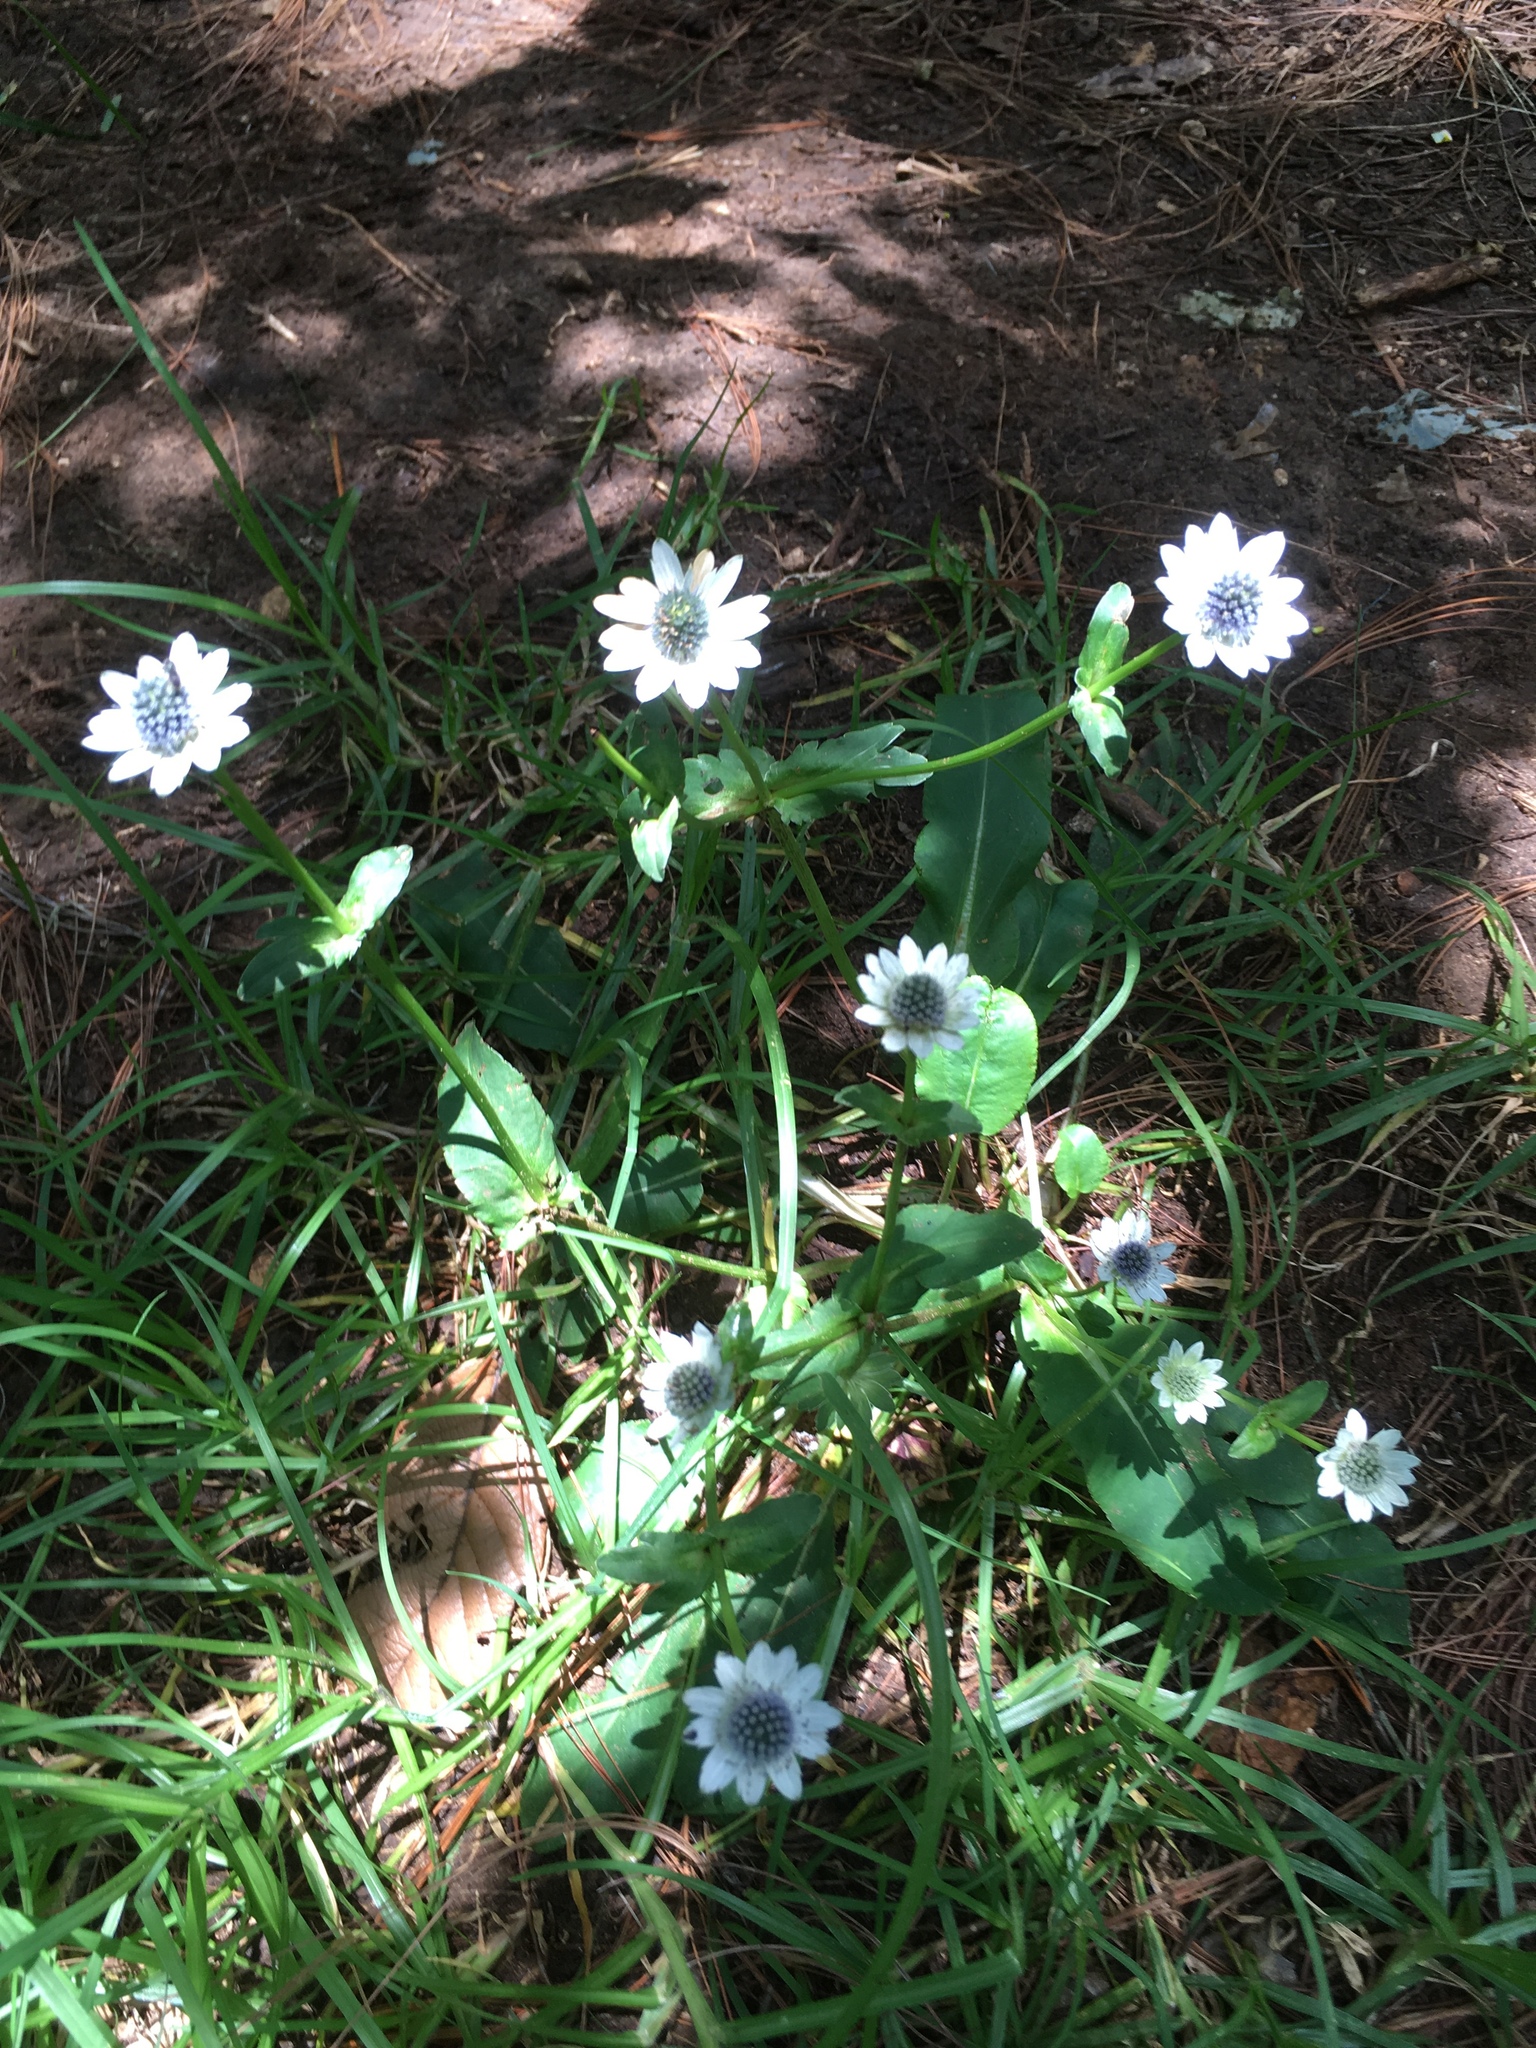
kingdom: Plantae
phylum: Tracheophyta
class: Magnoliopsida
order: Apiales
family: Apiaceae
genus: Eryngium
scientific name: Eryngium scaposum
